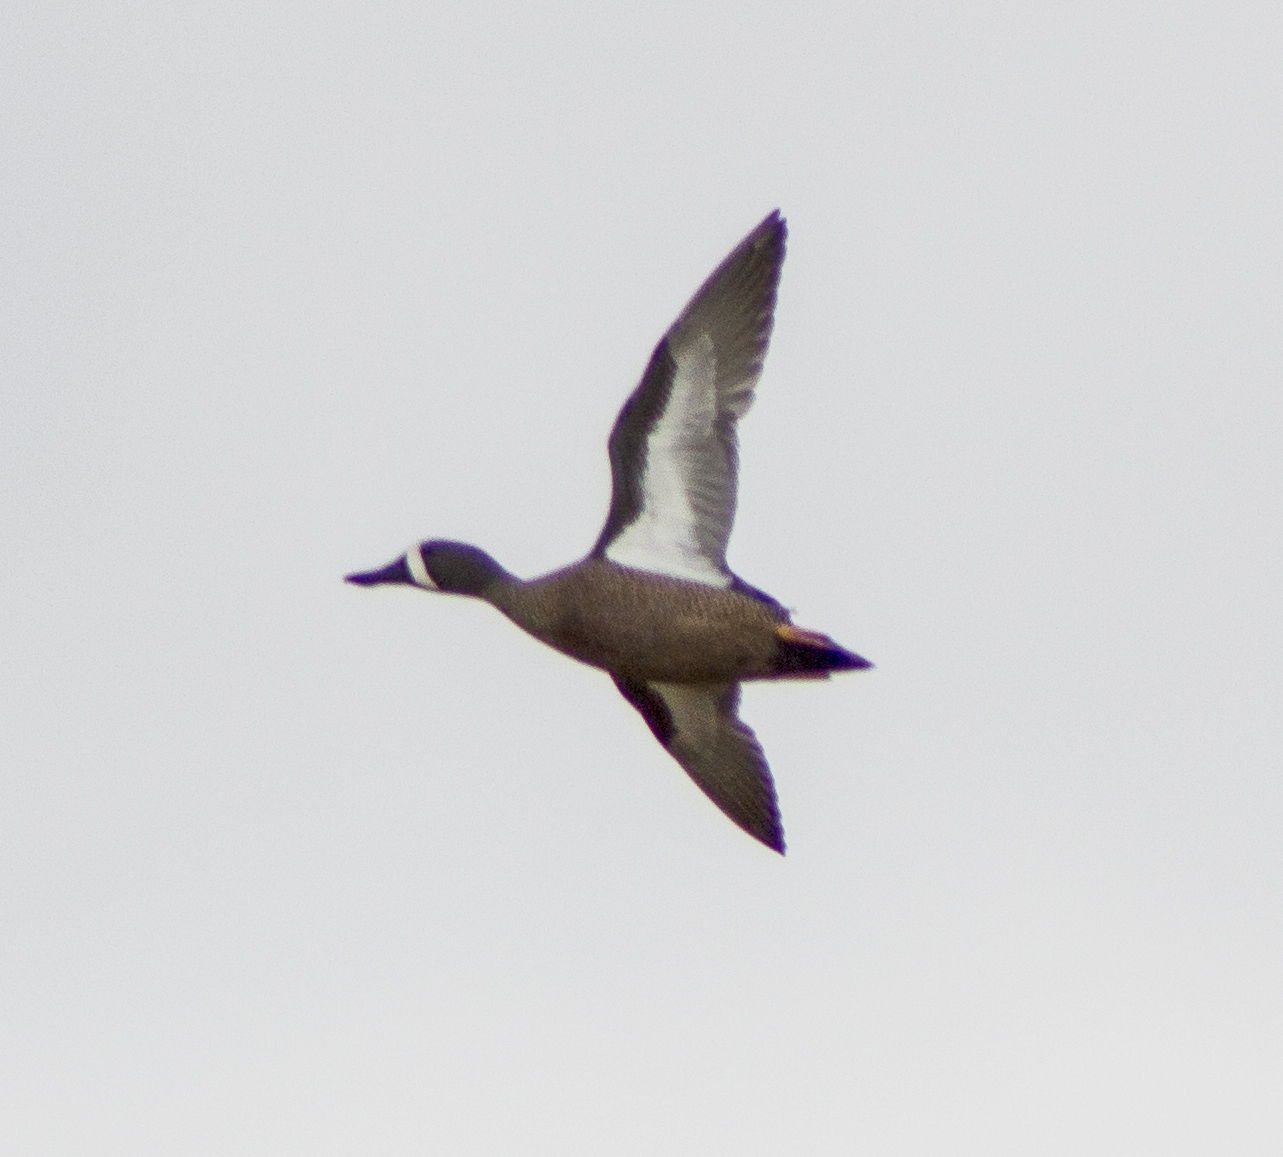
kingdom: Animalia
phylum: Chordata
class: Aves
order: Anseriformes
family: Anatidae
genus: Spatula
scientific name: Spatula discors
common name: Blue-winged teal
